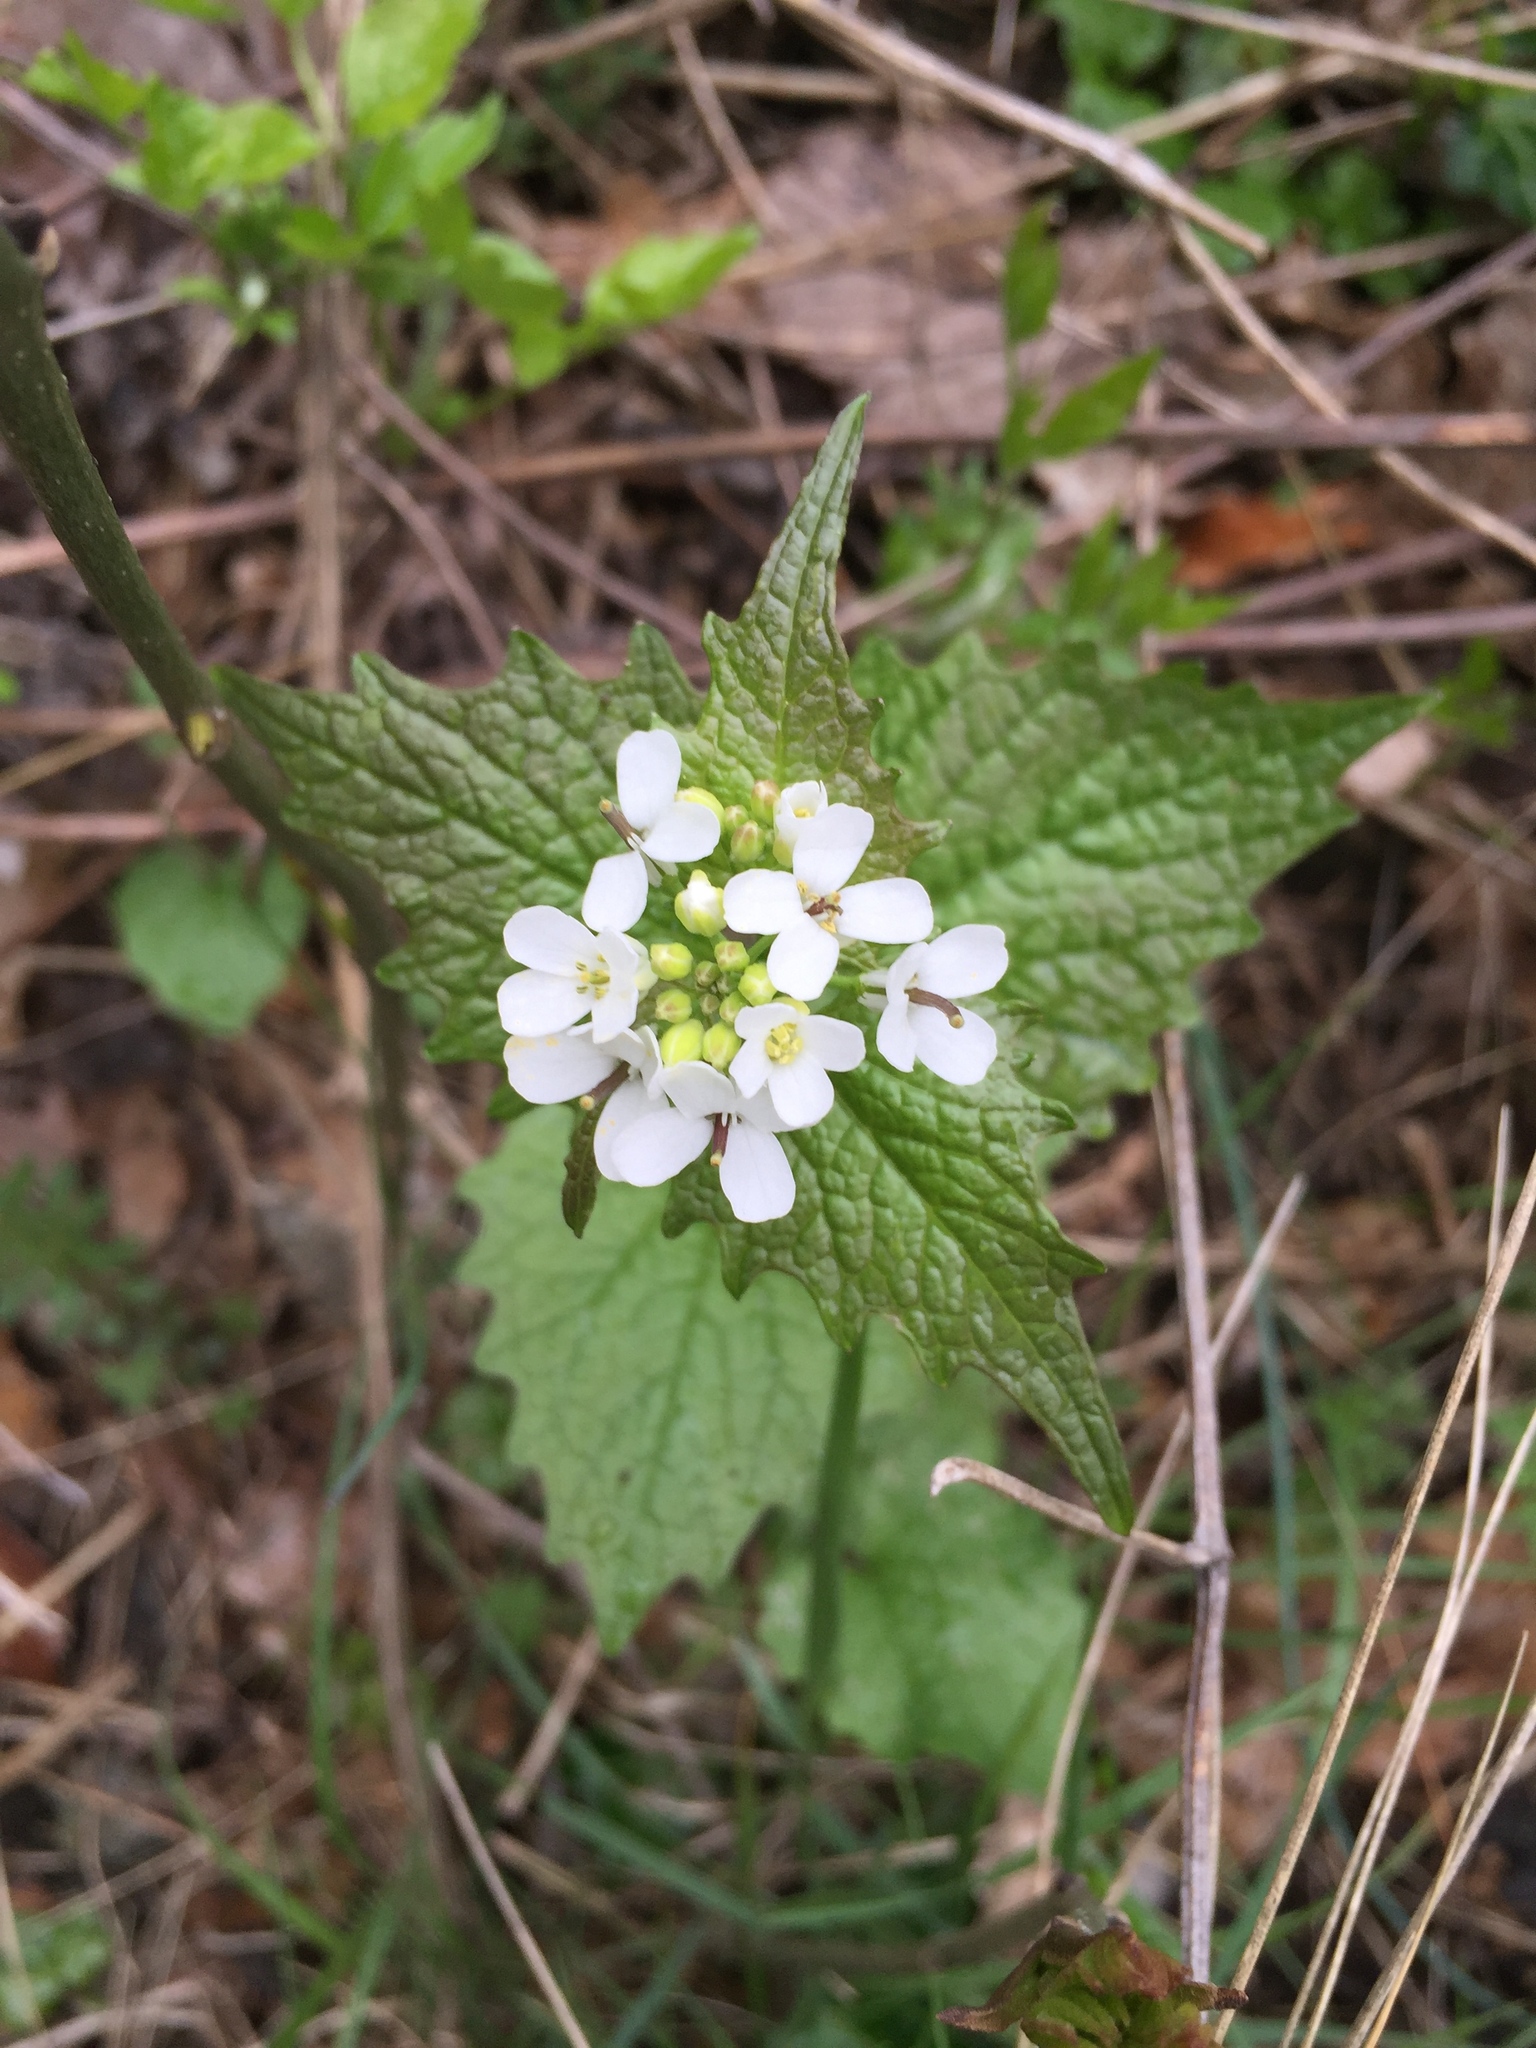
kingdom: Plantae
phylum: Tracheophyta
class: Magnoliopsida
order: Brassicales
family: Brassicaceae
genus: Alliaria
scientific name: Alliaria petiolata
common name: Garlic mustard
